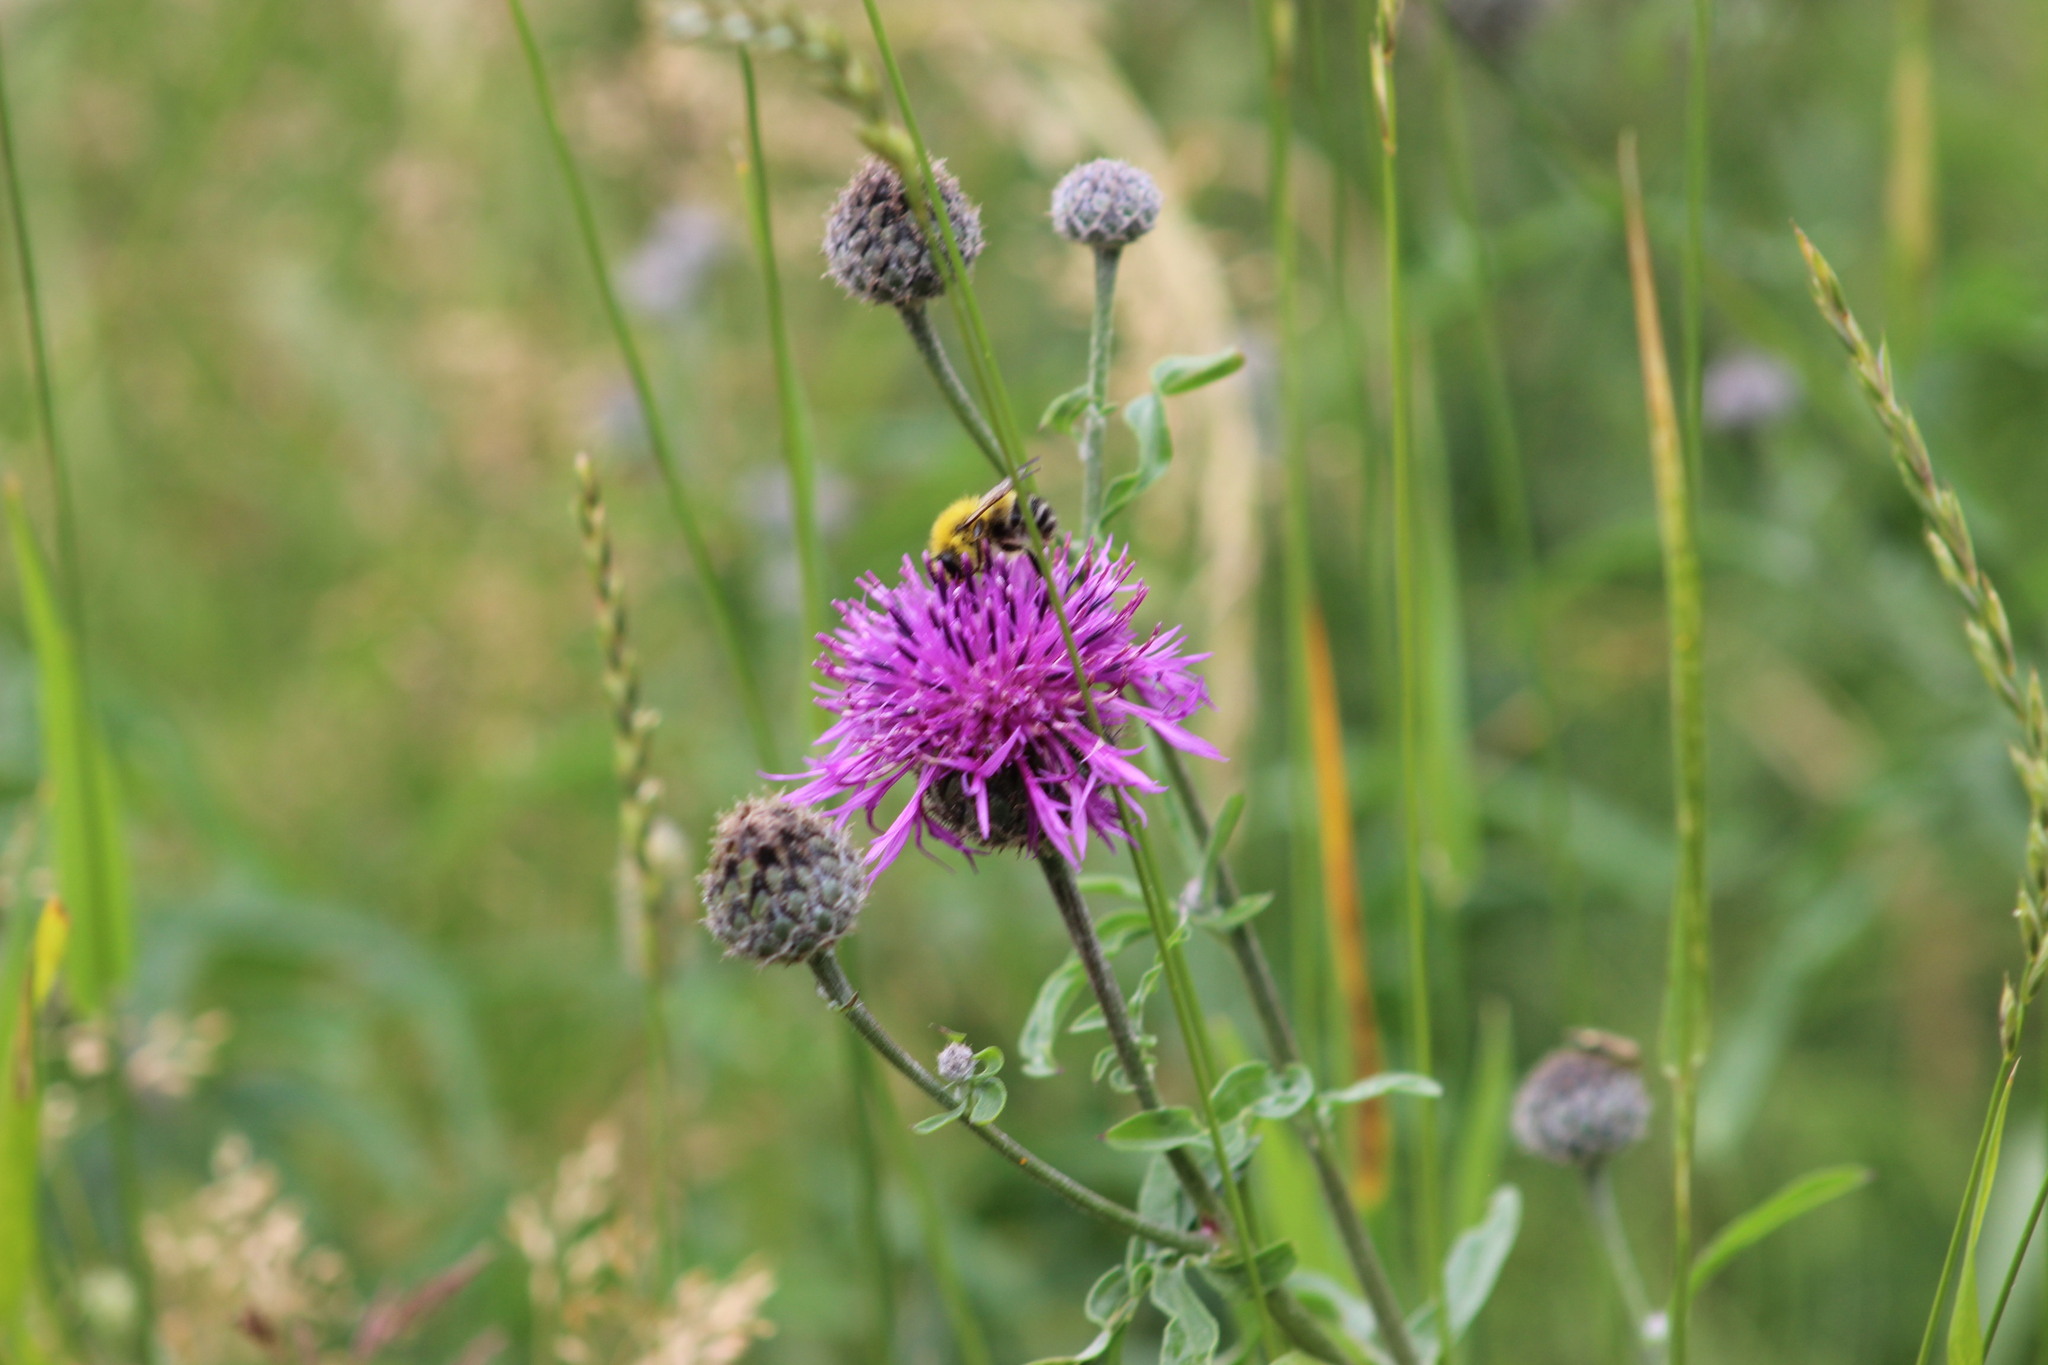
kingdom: Plantae
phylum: Tracheophyta
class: Magnoliopsida
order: Asterales
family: Asteraceae
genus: Centaurea
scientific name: Centaurea scabiosa
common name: Greater knapweed
